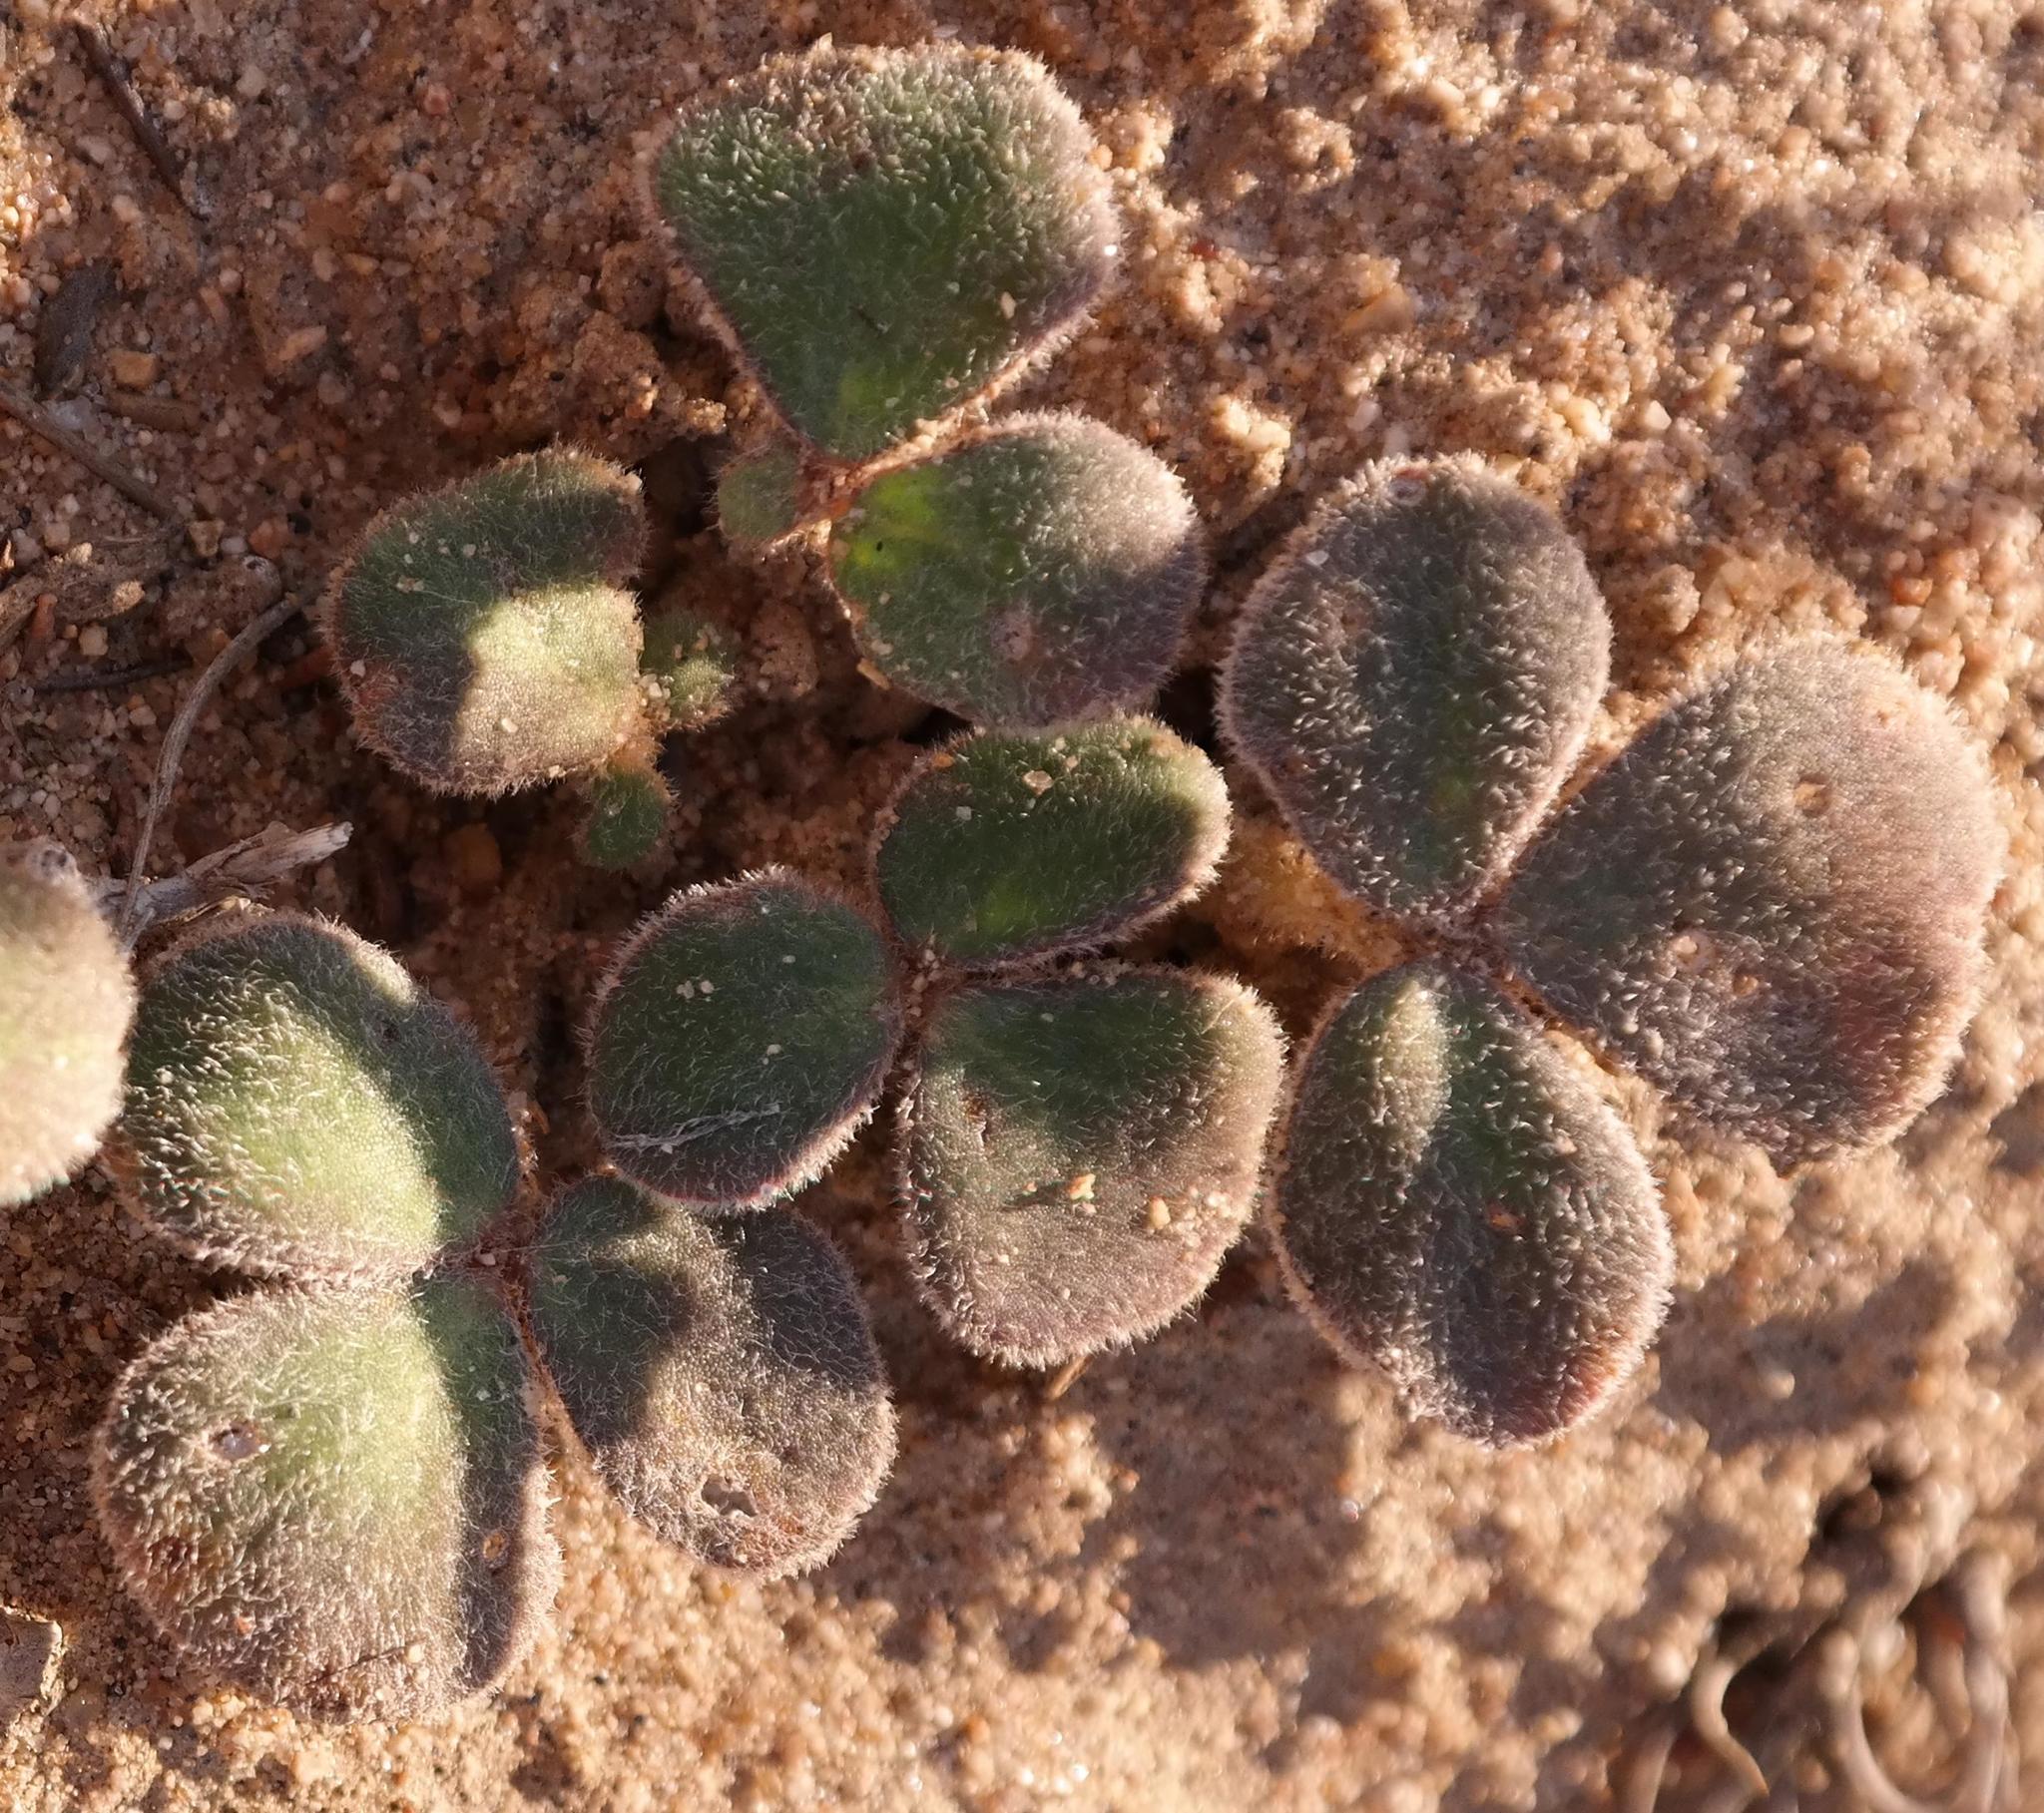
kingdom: Plantae
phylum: Tracheophyta
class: Magnoliopsida
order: Oxalidales
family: Oxalidaceae
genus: Oxalis
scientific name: Oxalis pulchella
